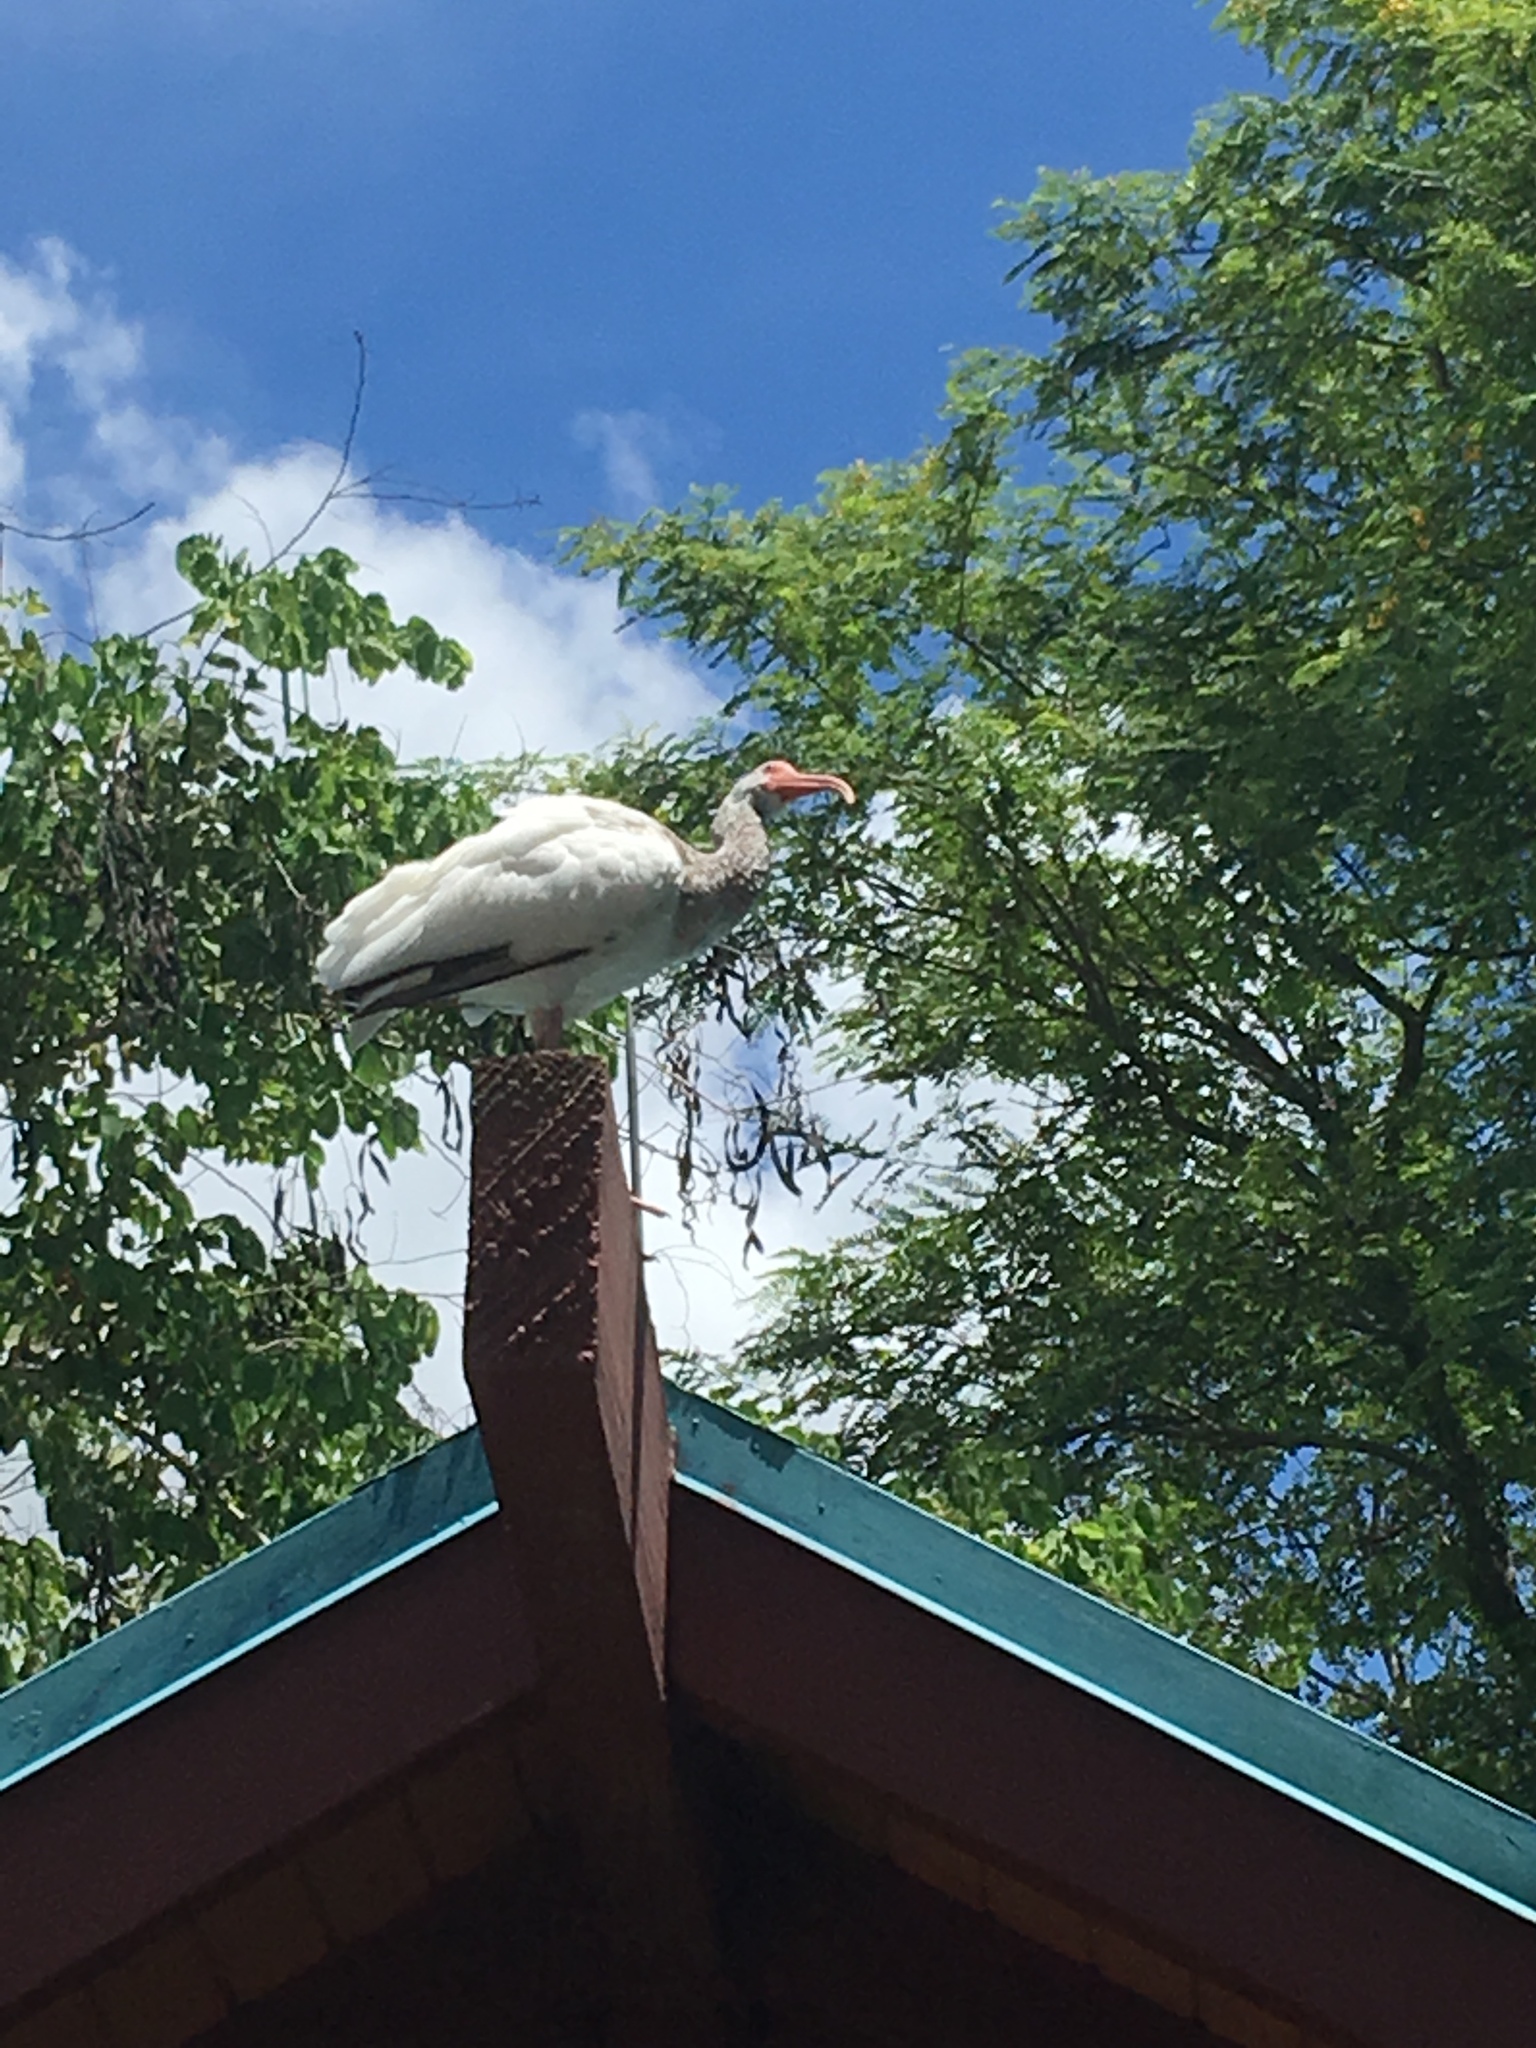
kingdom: Animalia
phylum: Chordata
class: Aves
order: Pelecaniformes
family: Threskiornithidae
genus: Eudocimus
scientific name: Eudocimus albus
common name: White ibis
